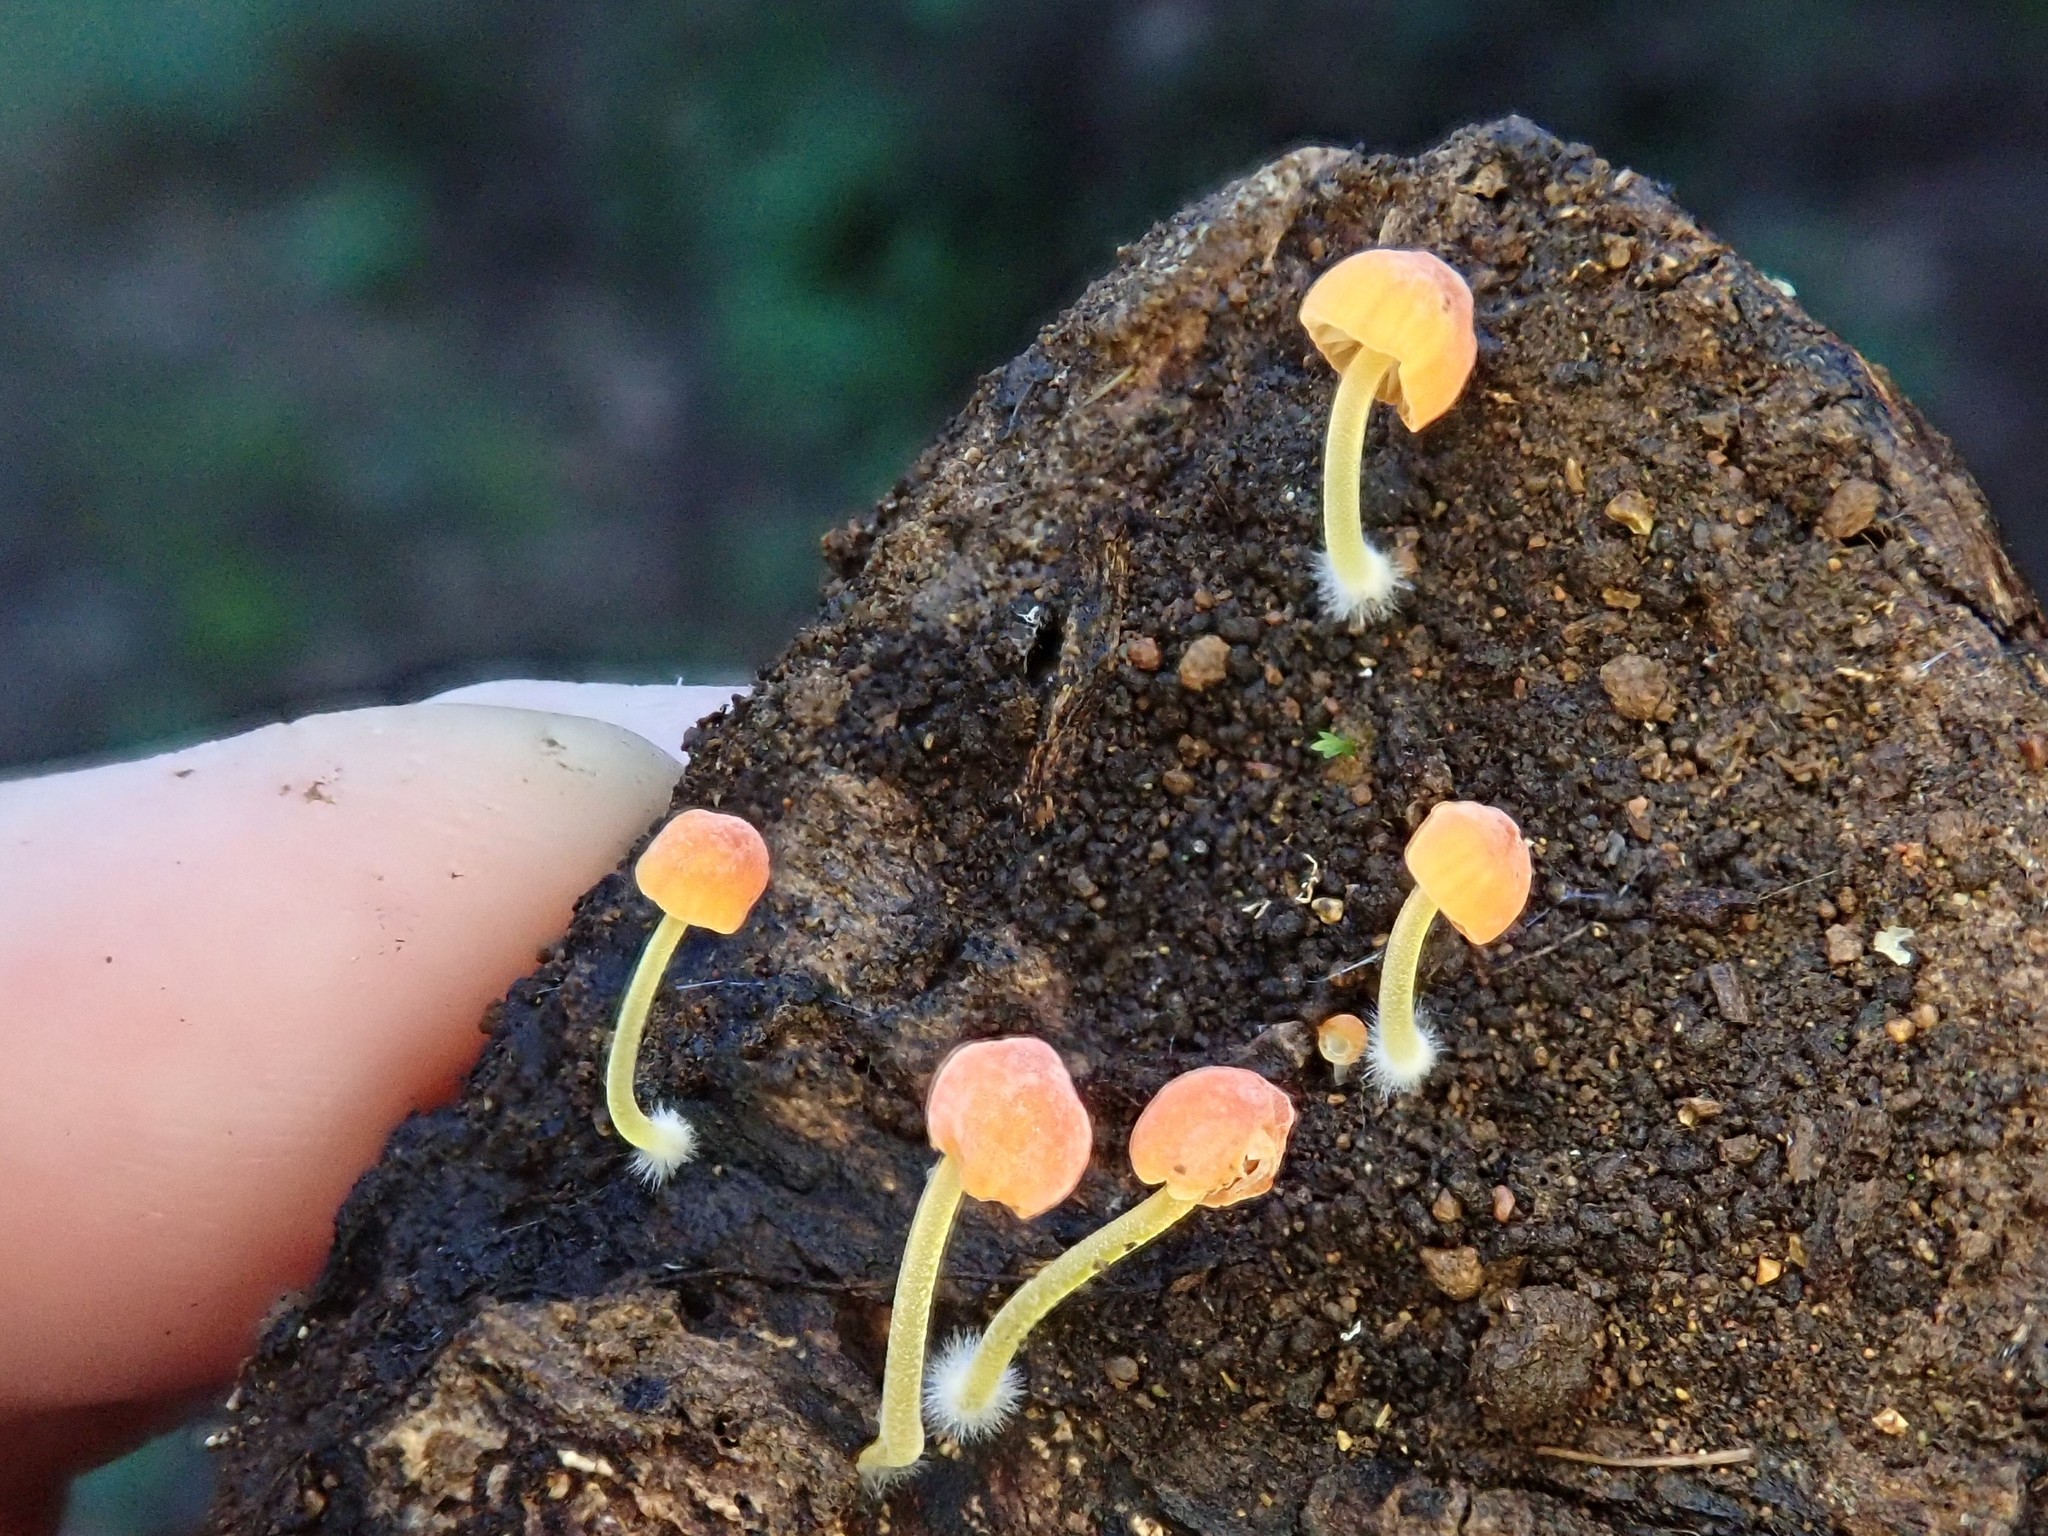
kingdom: Fungi
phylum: Basidiomycota
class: Agaricomycetes
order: Agaricales
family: Mycenaceae
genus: Mycena
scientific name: Mycena acicula
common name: Orange bonnet
